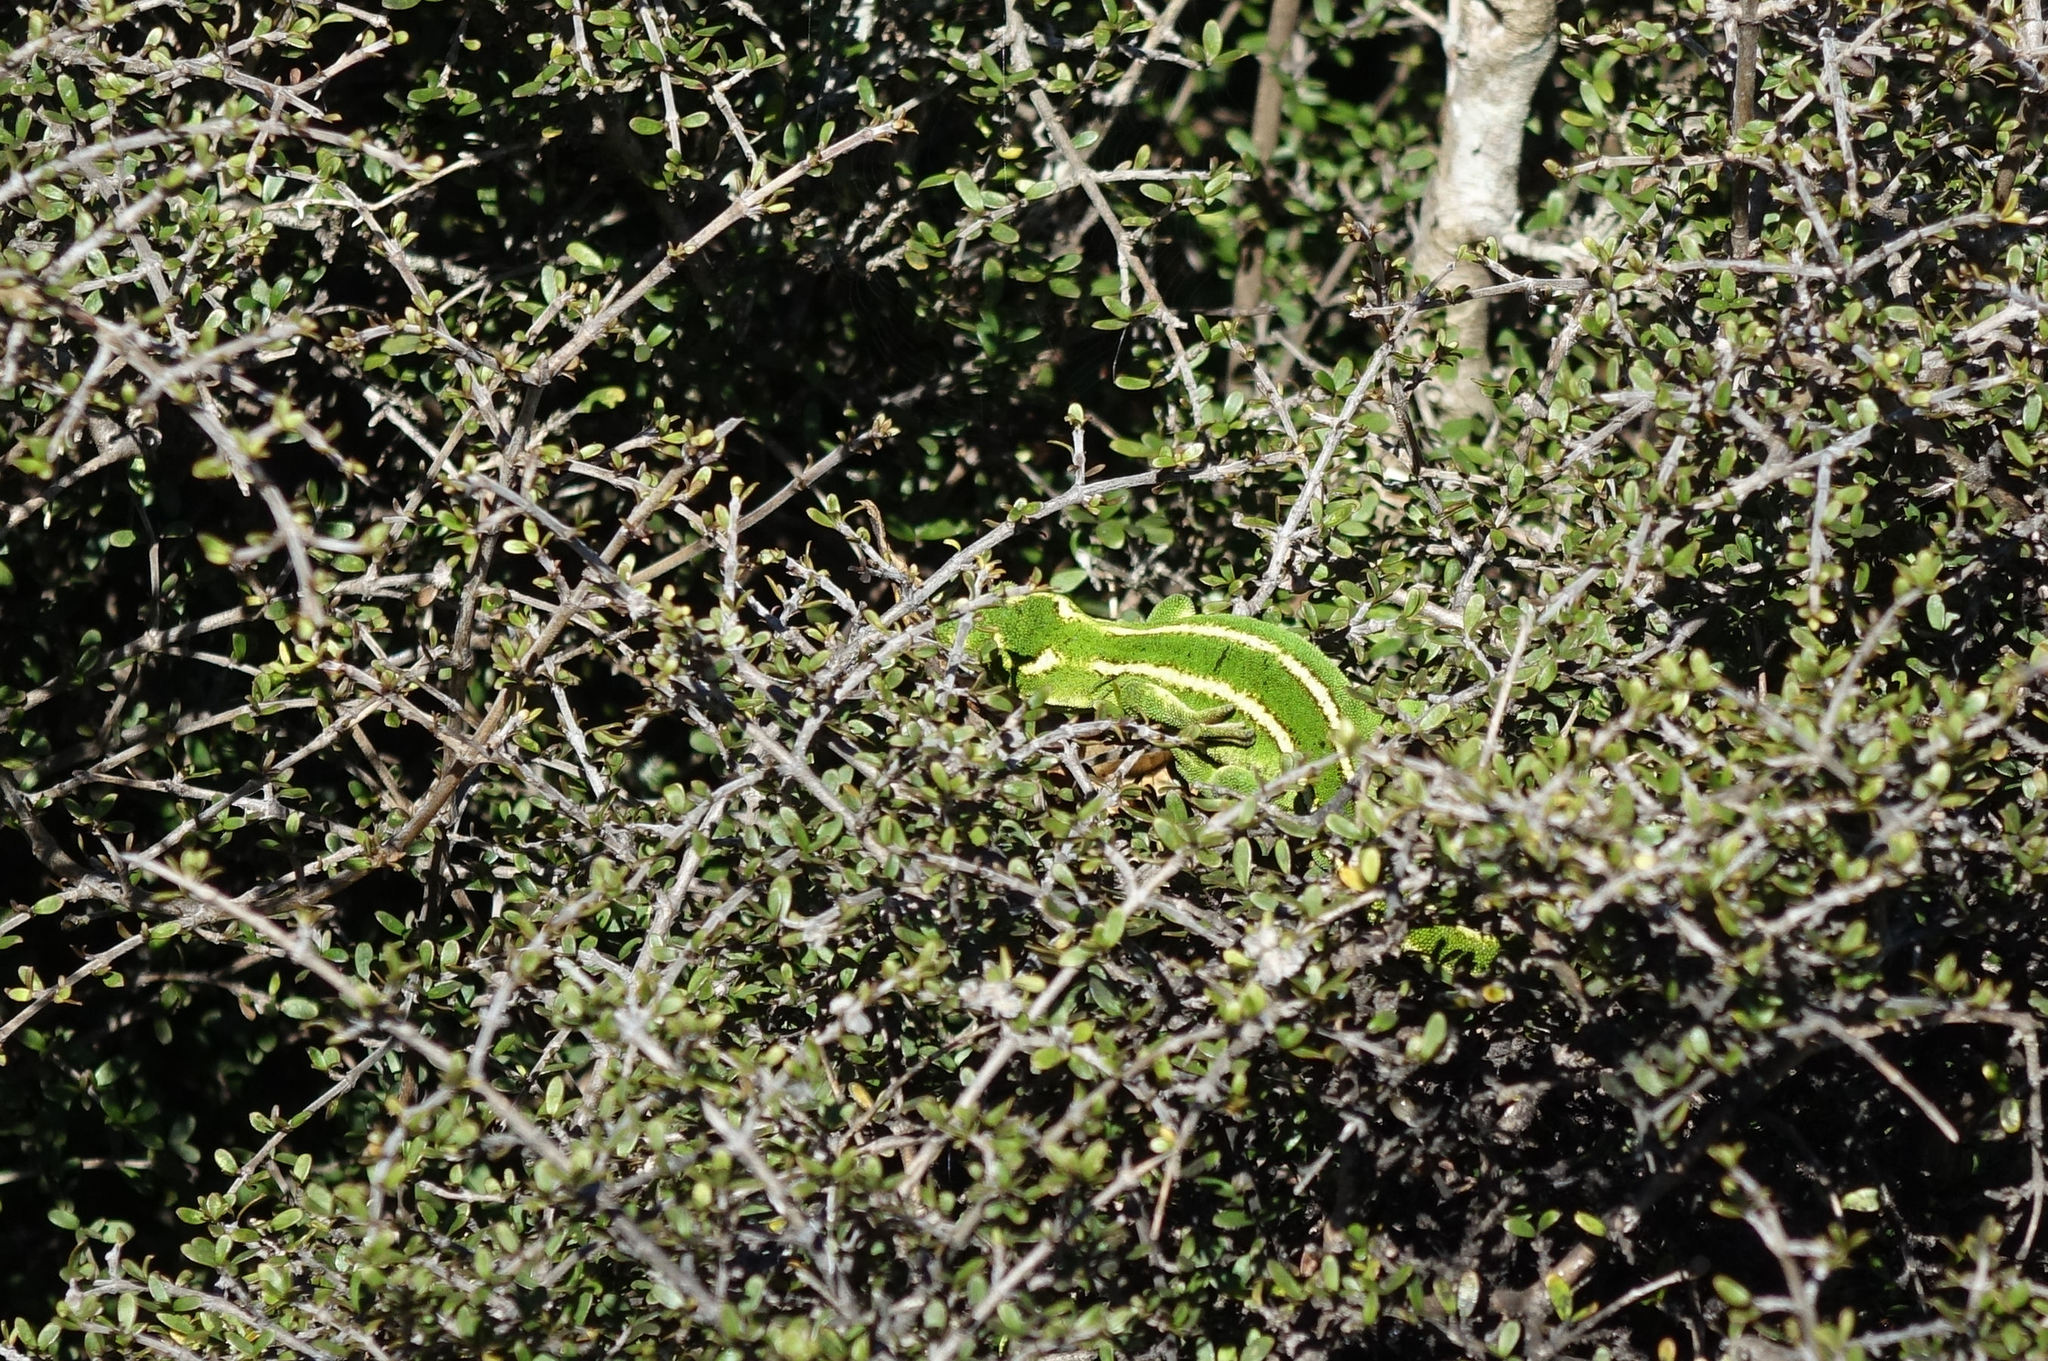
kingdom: Animalia
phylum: Chordata
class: Squamata
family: Diplodactylidae
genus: Naultinus
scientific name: Naultinus gemmeus
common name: Jewelled gecko
